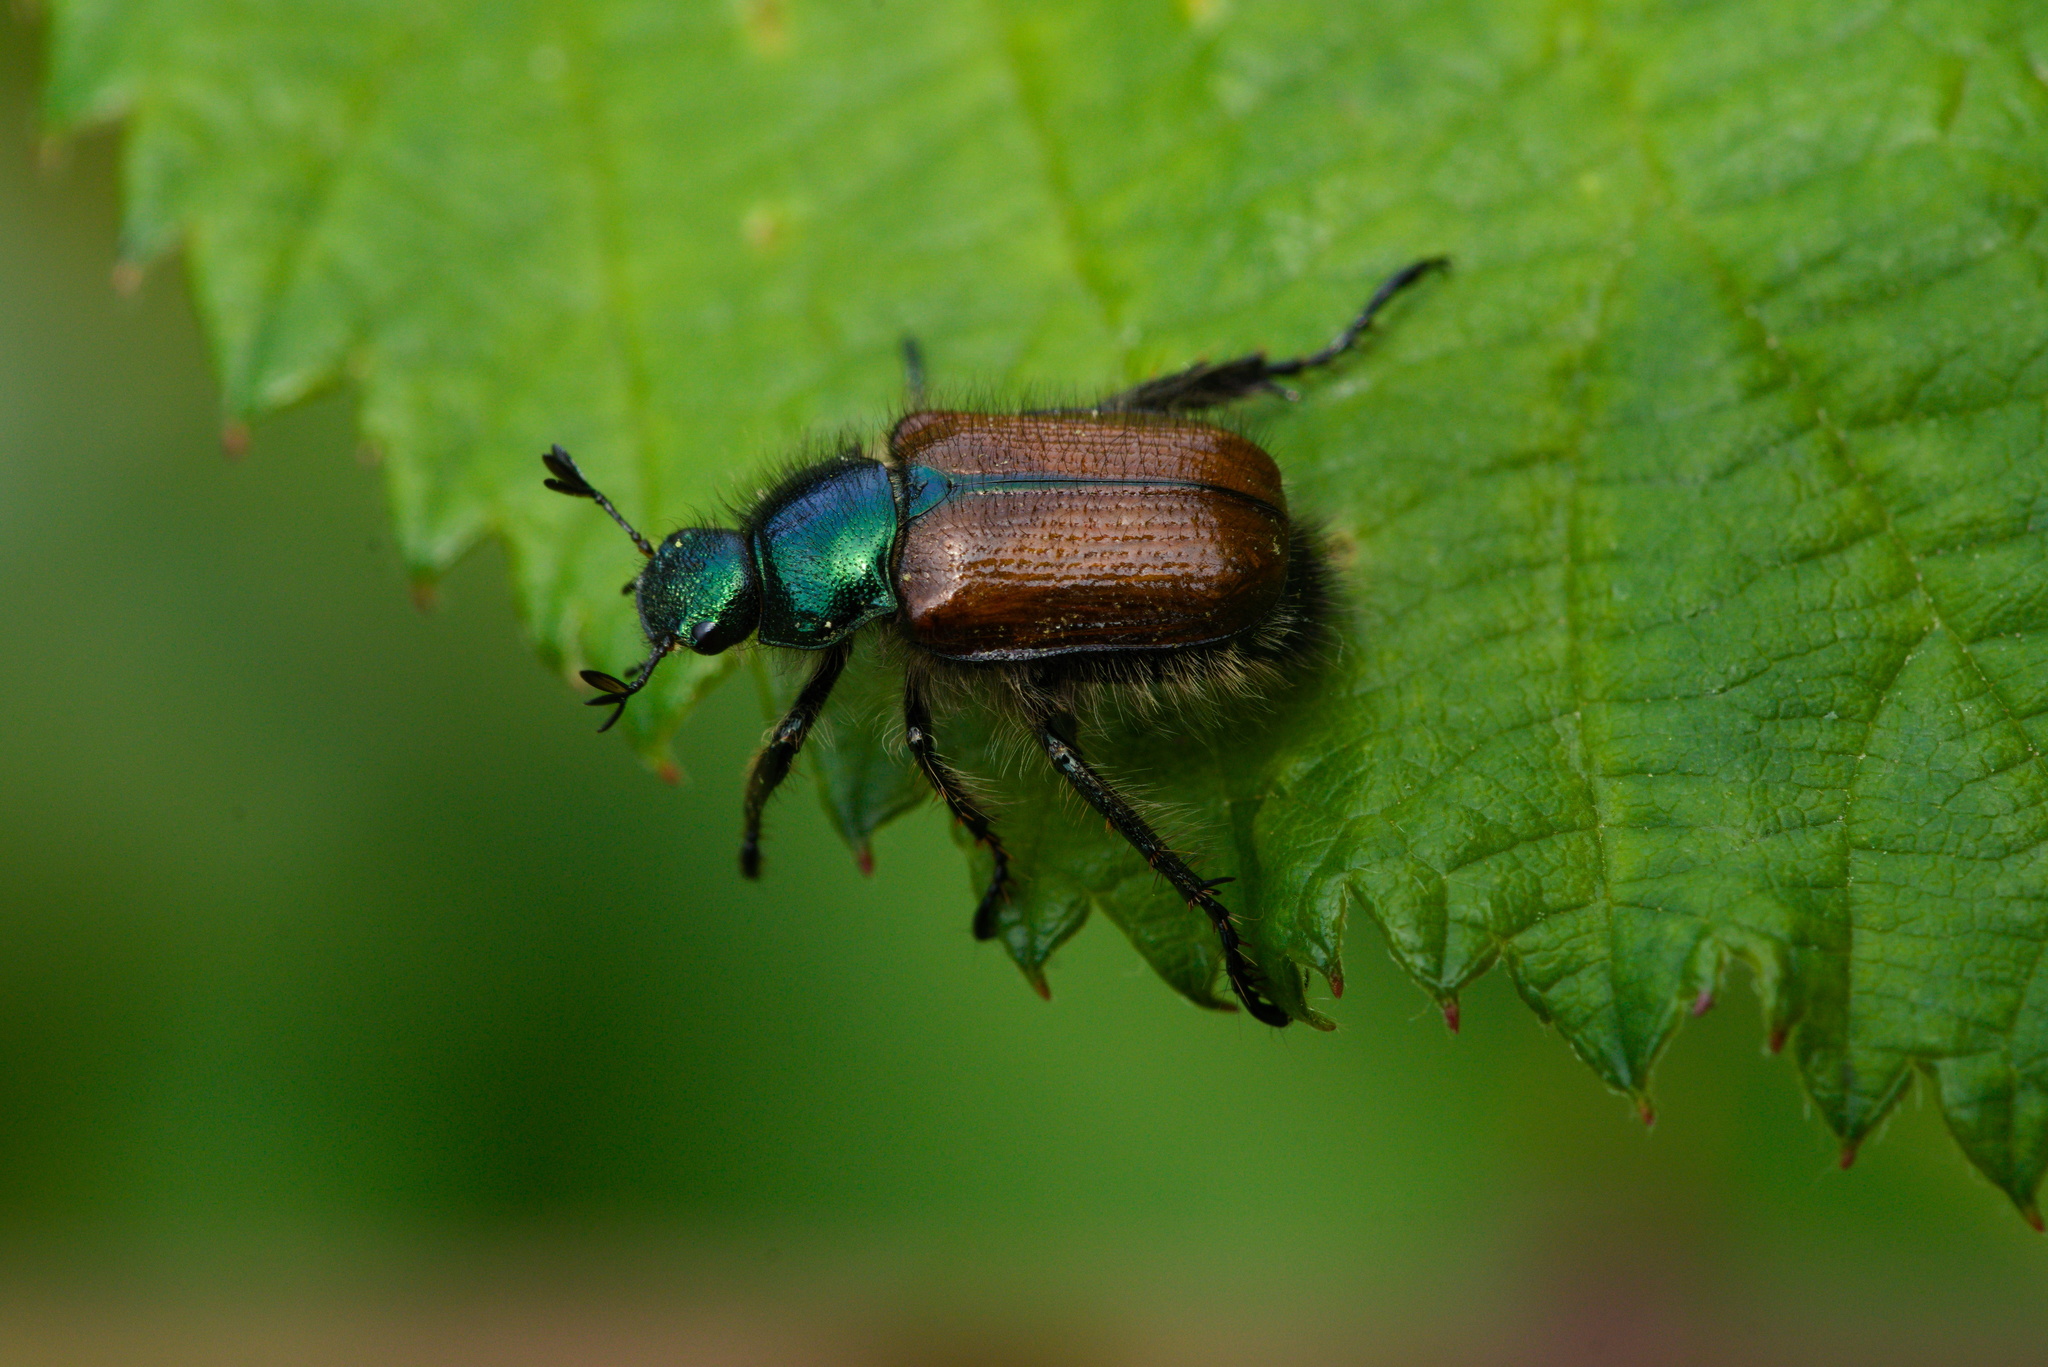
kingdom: Animalia
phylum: Arthropoda
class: Insecta
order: Coleoptera
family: Scarabaeidae
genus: Phyllopertha
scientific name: Phyllopertha horticola
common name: Garden chafer
